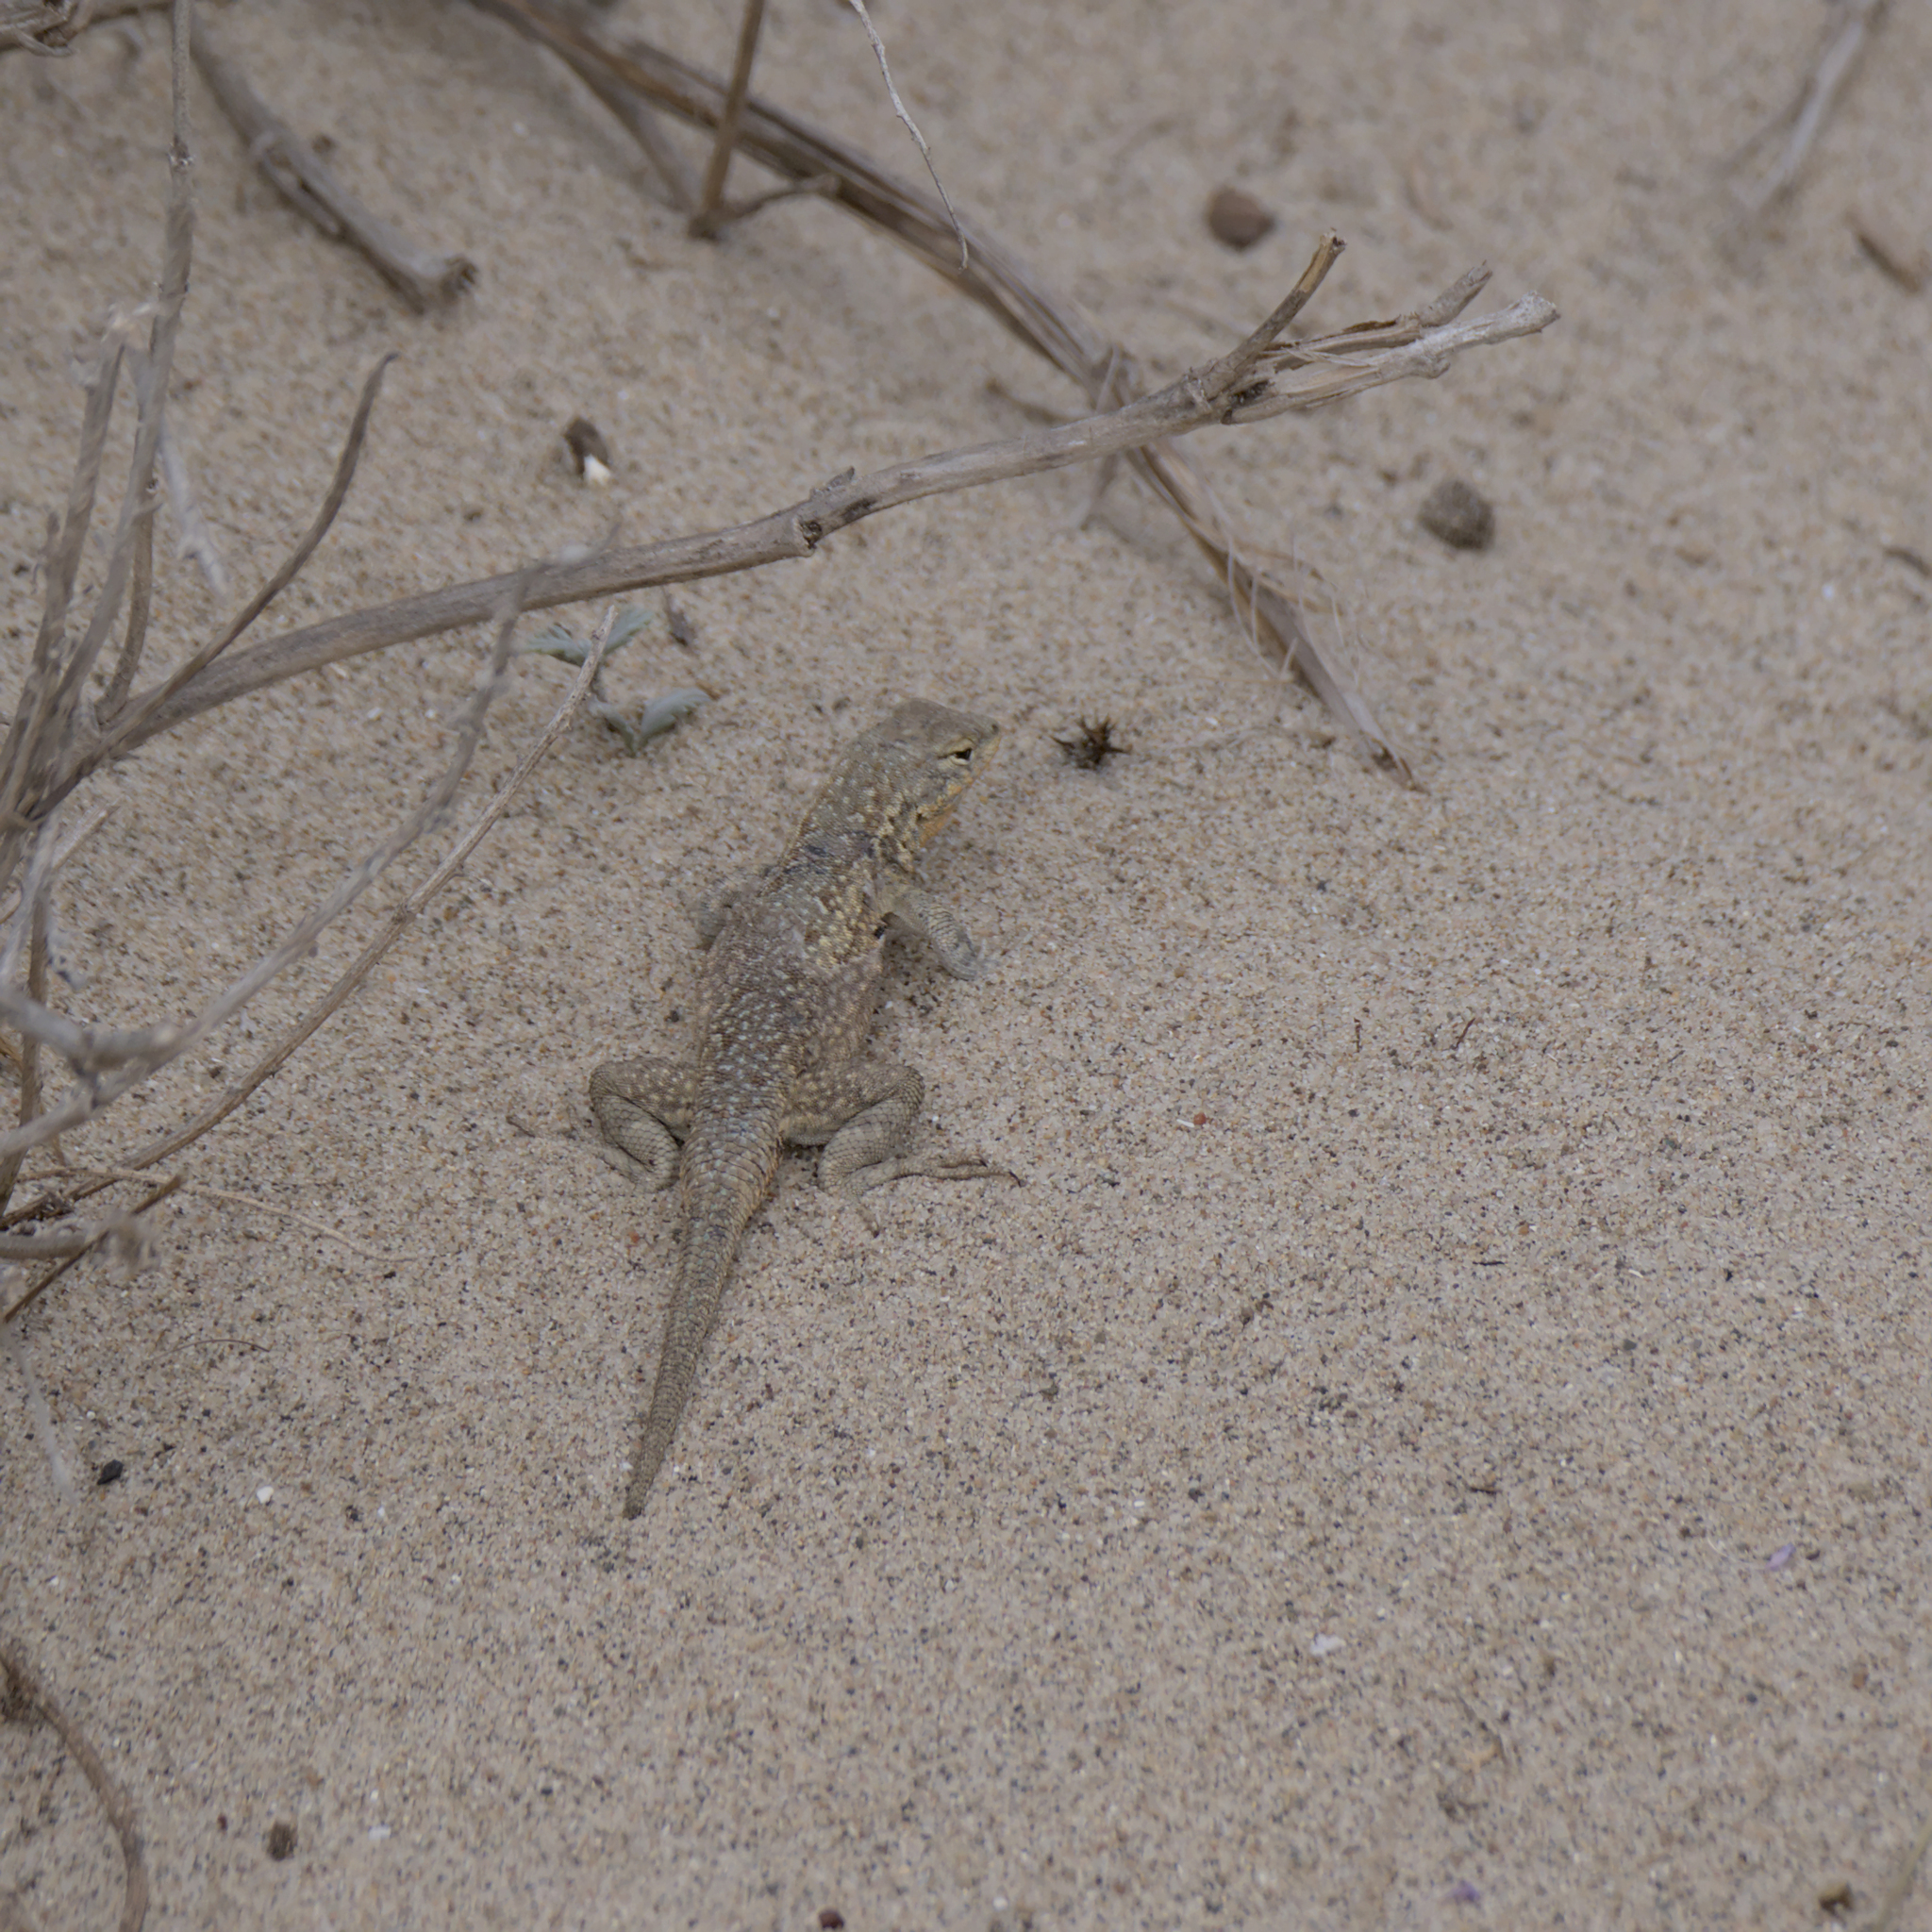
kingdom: Animalia
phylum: Chordata
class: Squamata
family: Phrynosomatidae
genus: Uta
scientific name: Uta stansburiana
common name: Side-blotched lizard
